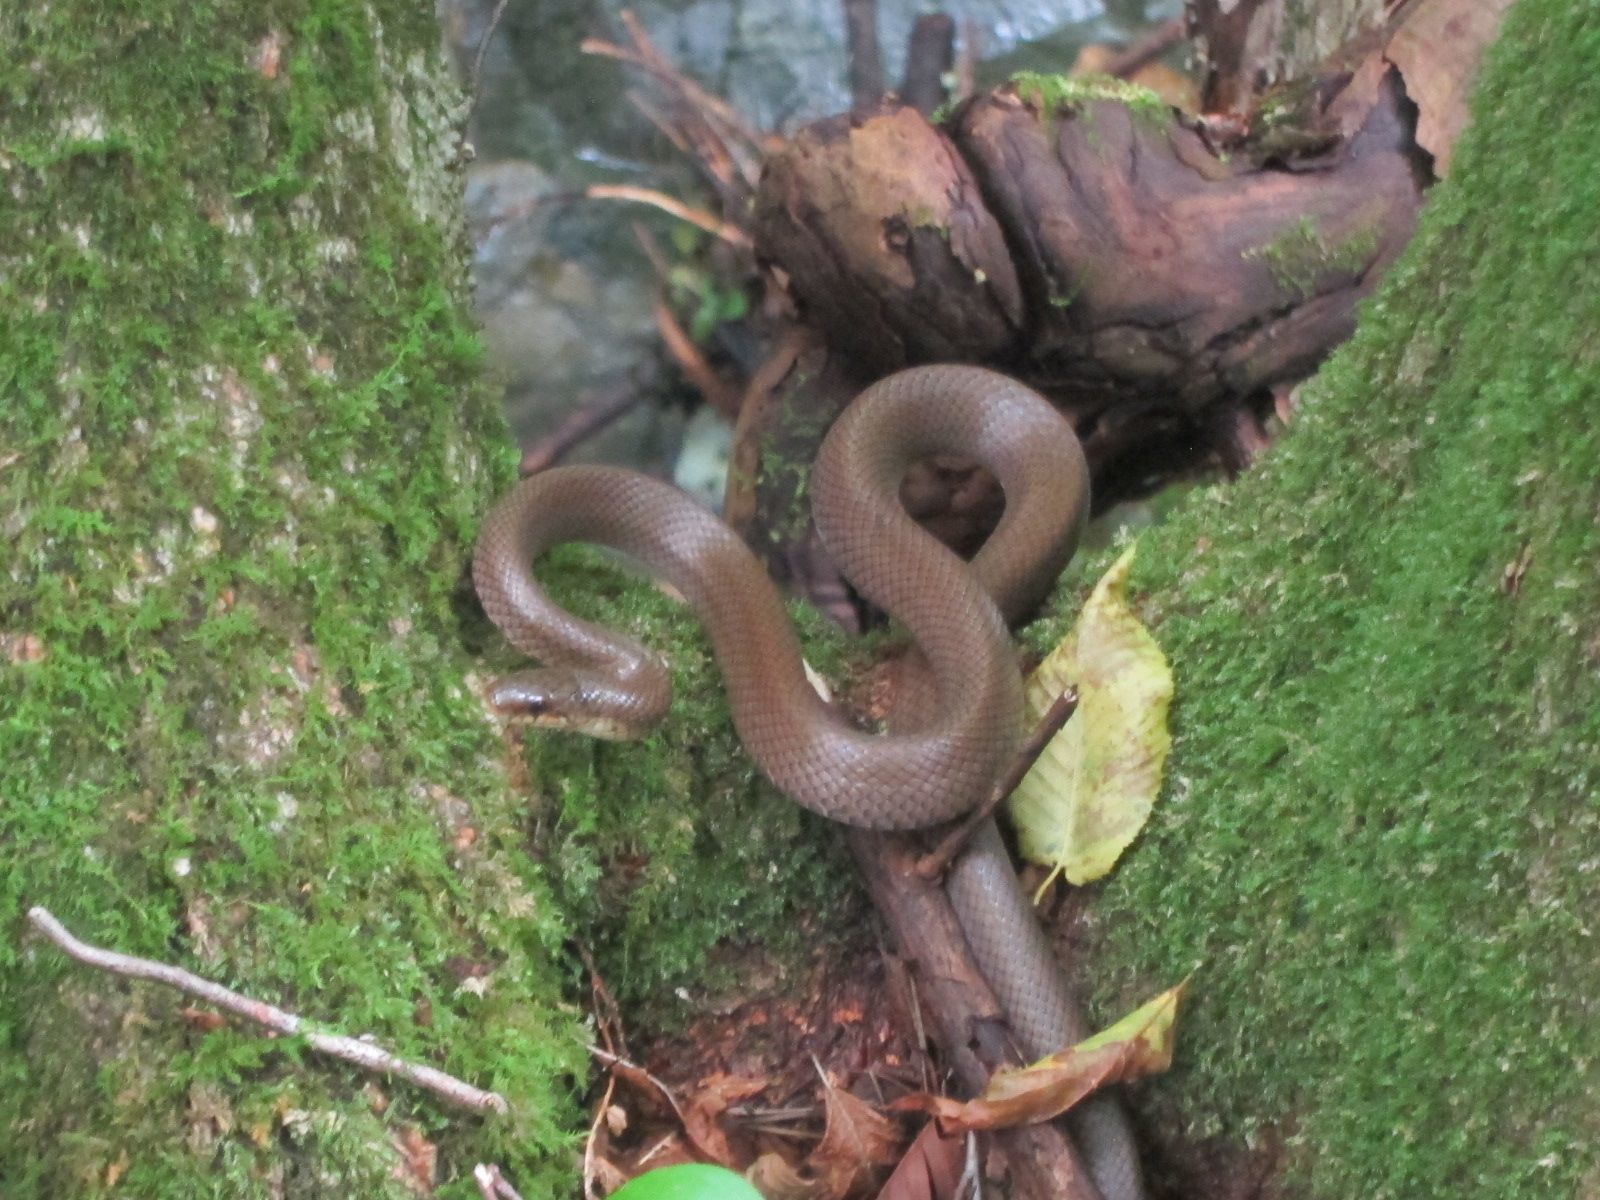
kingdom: Animalia
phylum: Chordata
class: Squamata
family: Colubridae
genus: Euprepiophis
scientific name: Euprepiophis conspicillata
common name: Burrowing ratsnake
